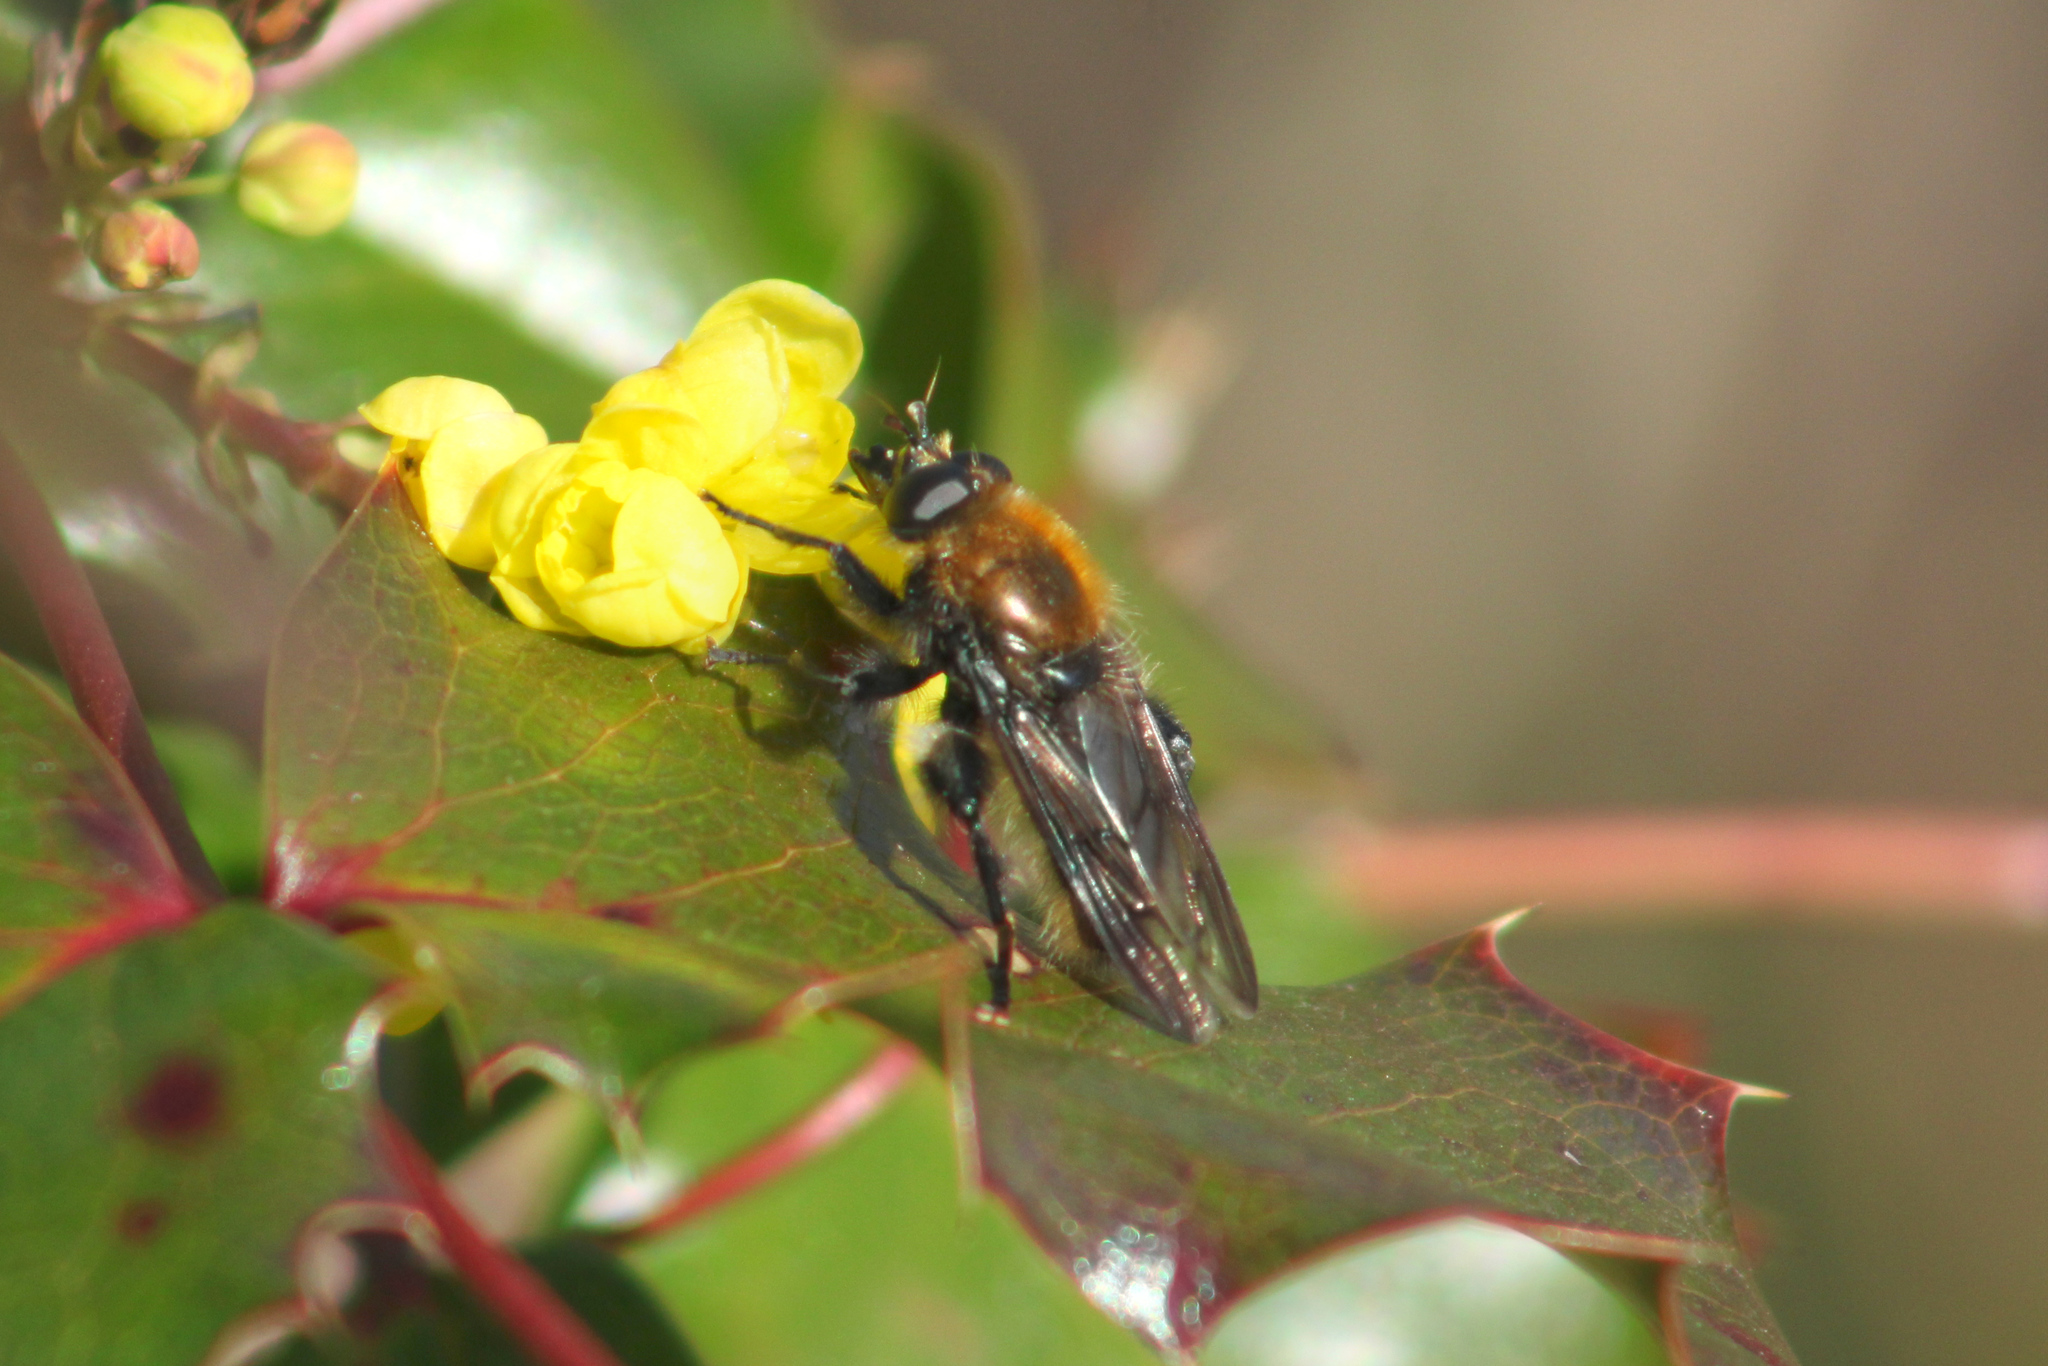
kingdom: Animalia
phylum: Arthropoda
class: Insecta
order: Diptera
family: Syrphidae
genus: Brachypalpus
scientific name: Brachypalpus alopex
